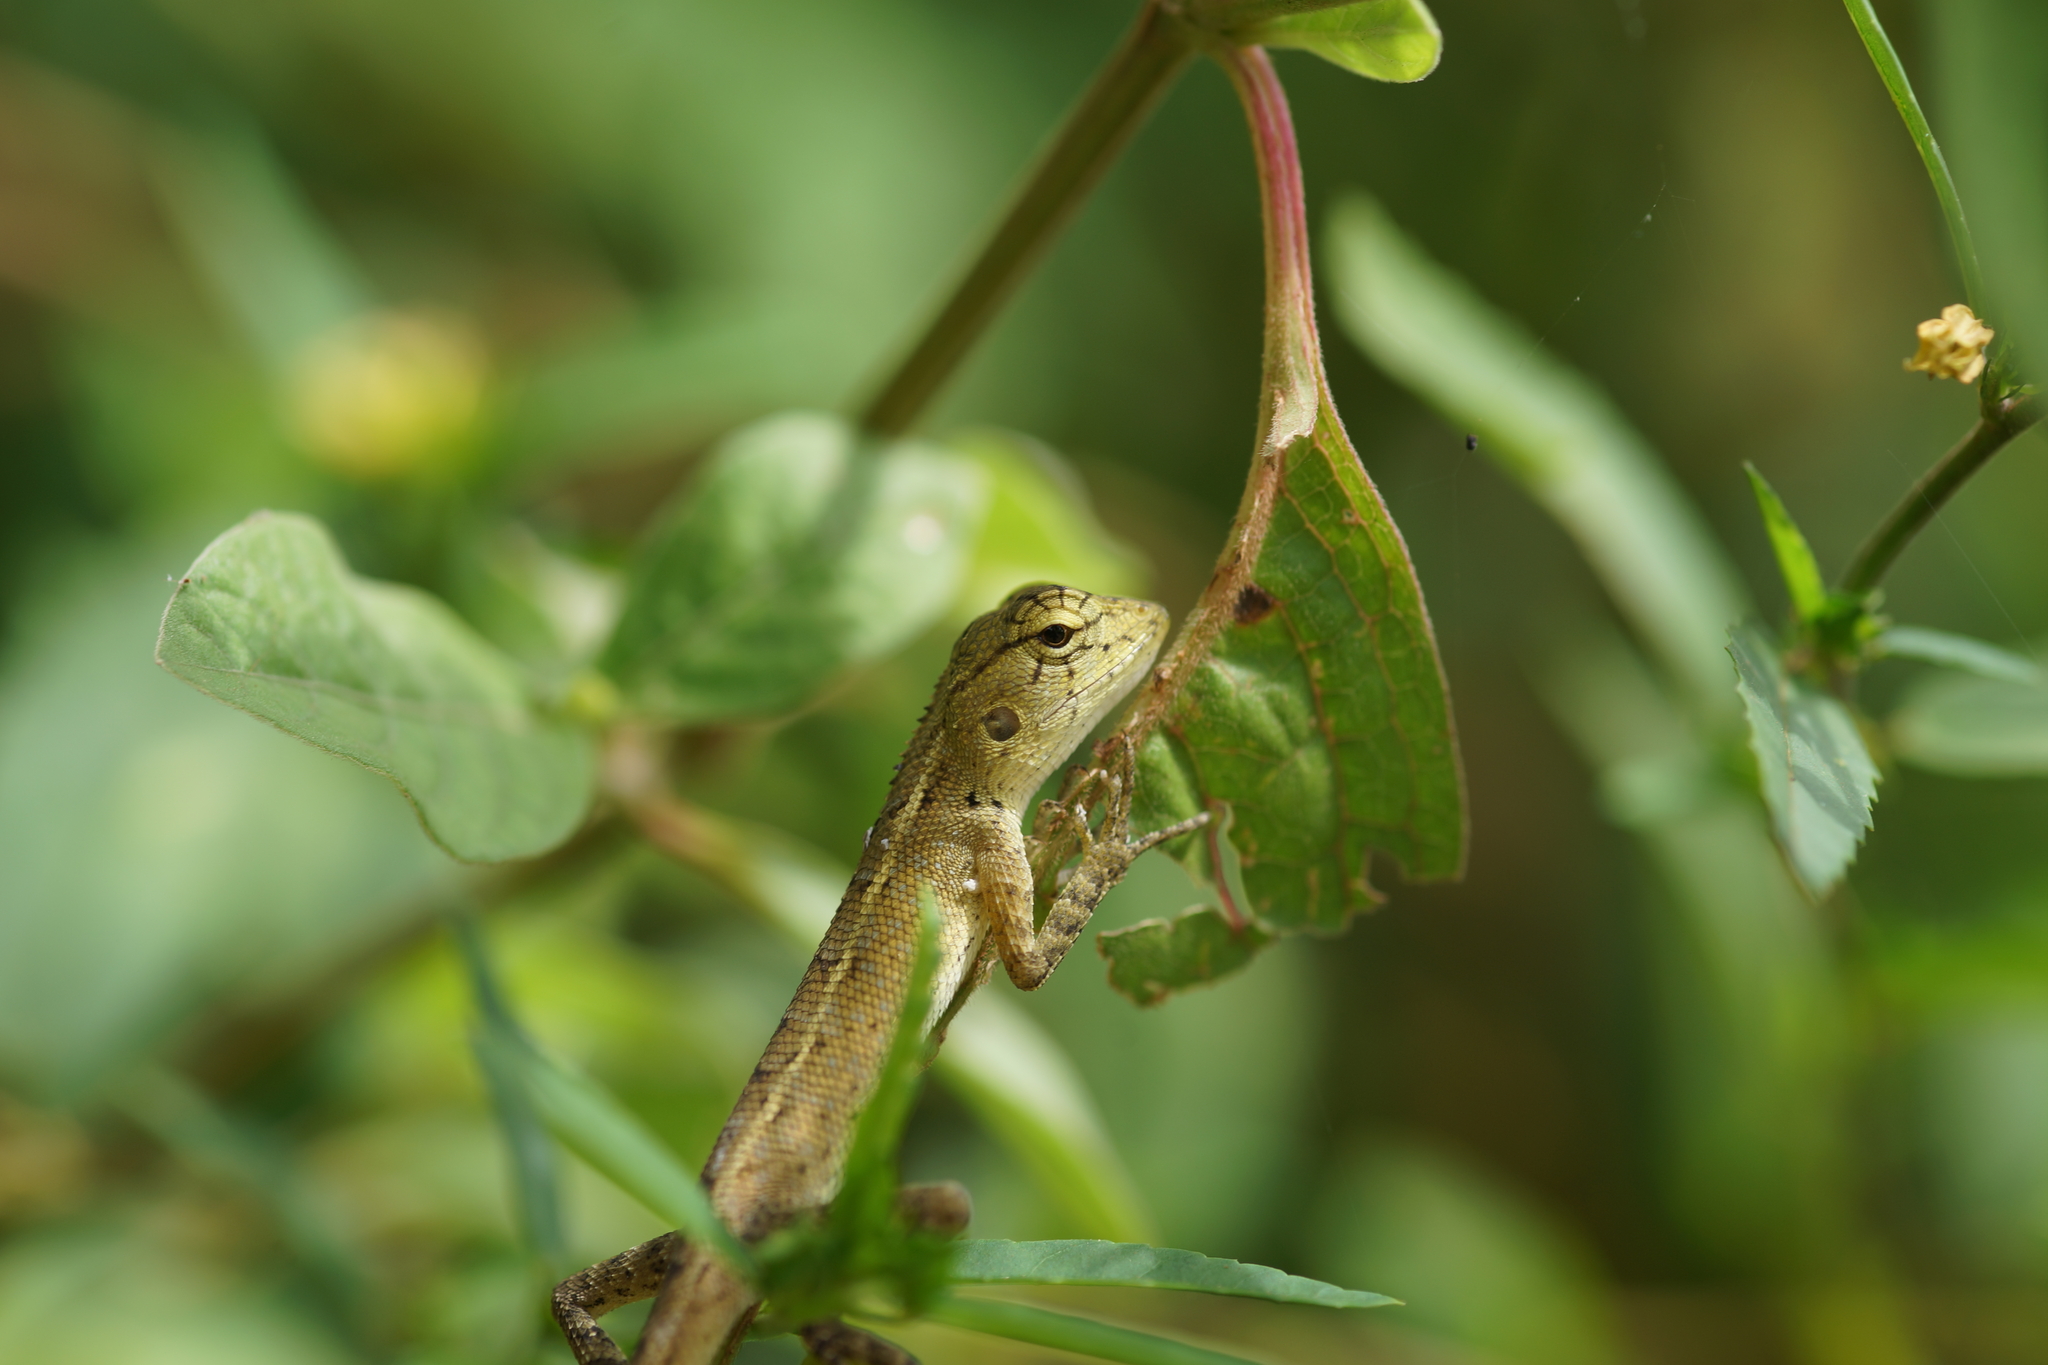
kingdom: Animalia
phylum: Chordata
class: Squamata
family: Agamidae
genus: Calotes
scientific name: Calotes versicolor
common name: Oriental garden lizard
